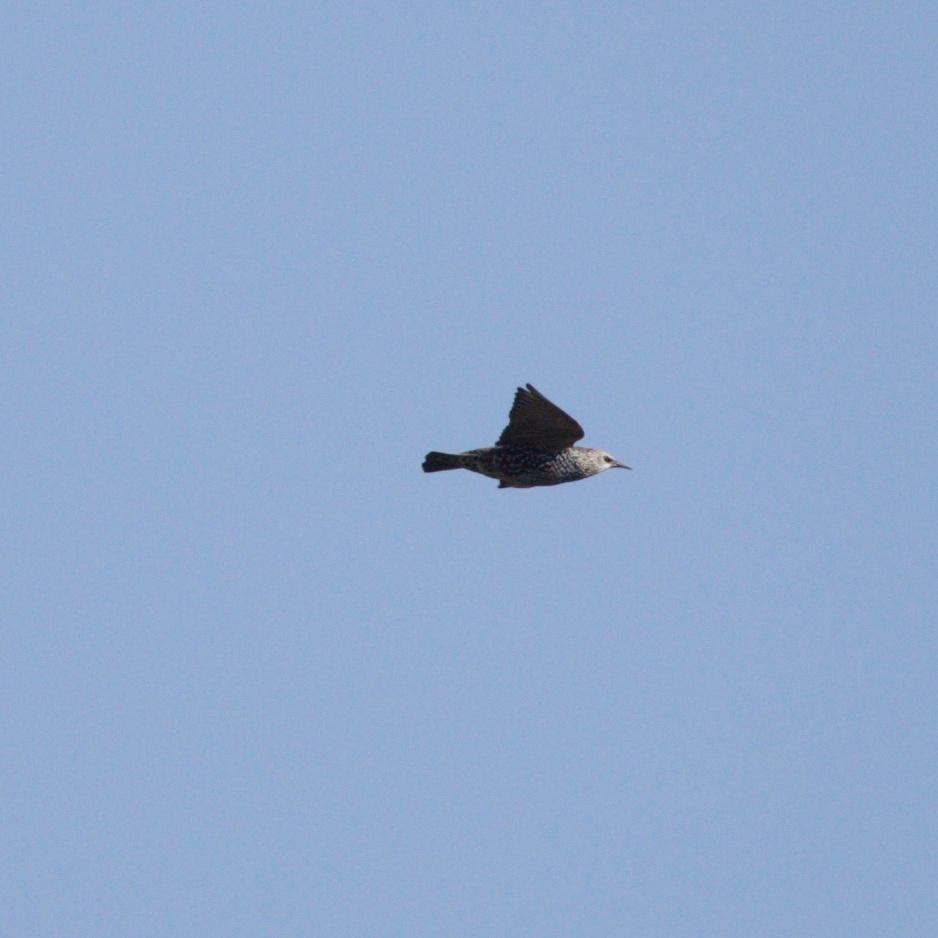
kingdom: Animalia
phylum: Chordata
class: Aves
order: Passeriformes
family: Sturnidae
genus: Sturnus
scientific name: Sturnus vulgaris
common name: Common starling
